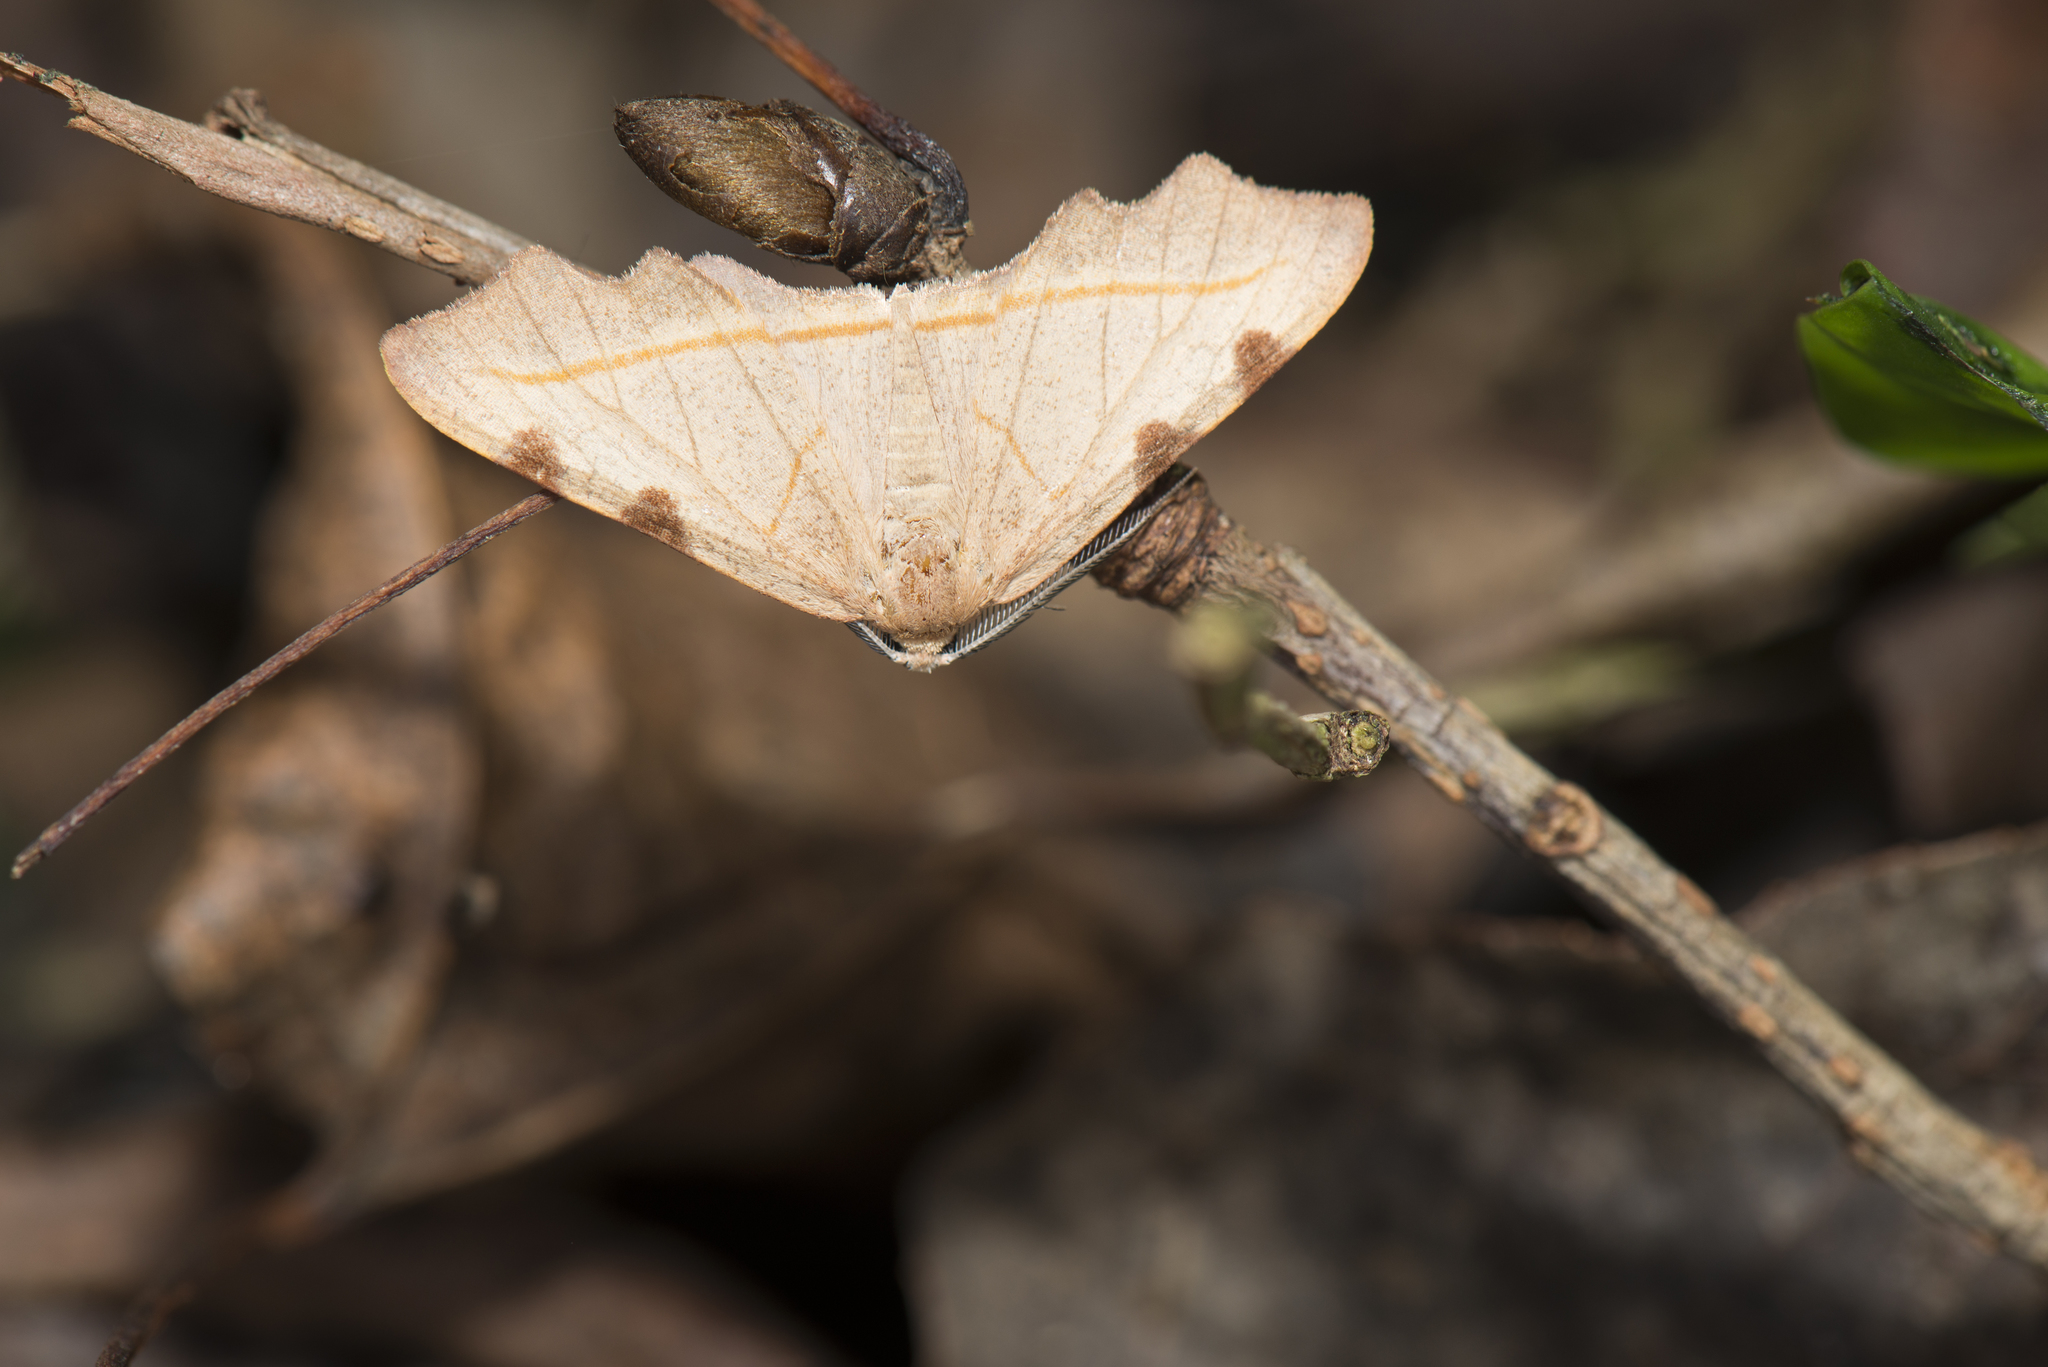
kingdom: Animalia
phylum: Arthropoda
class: Insecta
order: Lepidoptera
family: Geometridae
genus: Achrosis
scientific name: Achrosis rufescens
